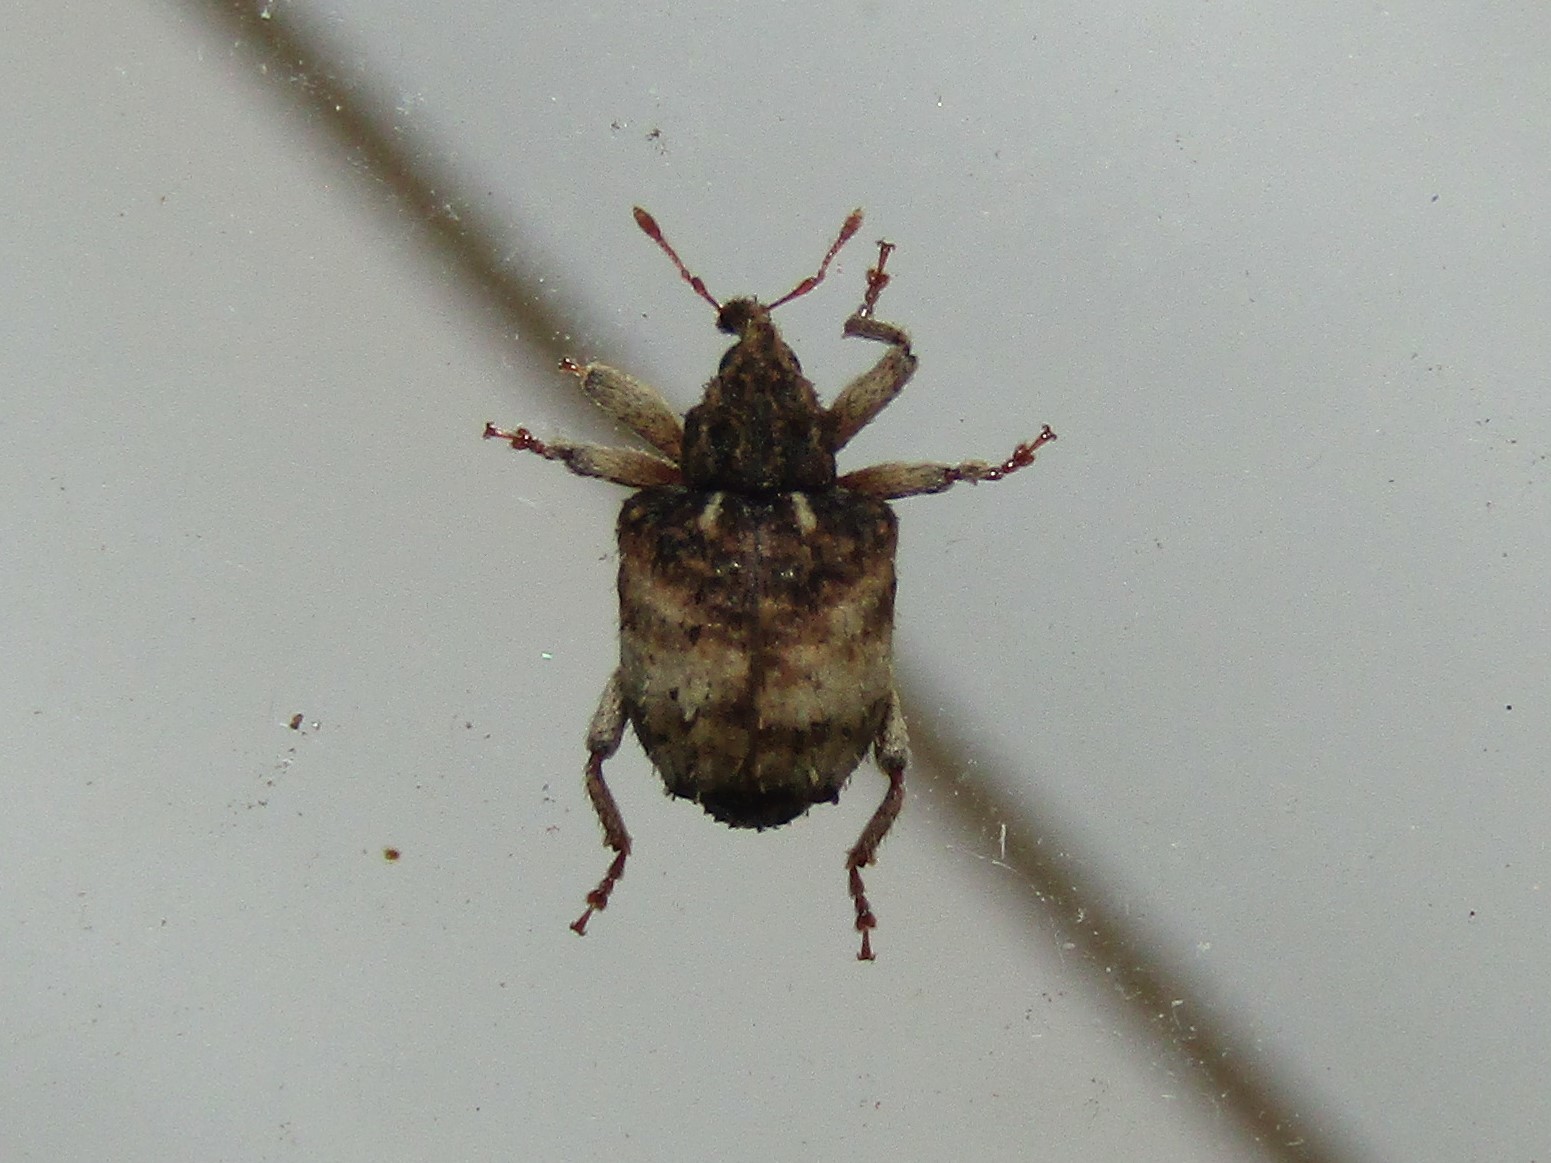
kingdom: Animalia
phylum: Arthropoda
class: Insecta
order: Coleoptera
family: Curculionidae
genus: Phyrdenus
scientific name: Phyrdenus divergens
